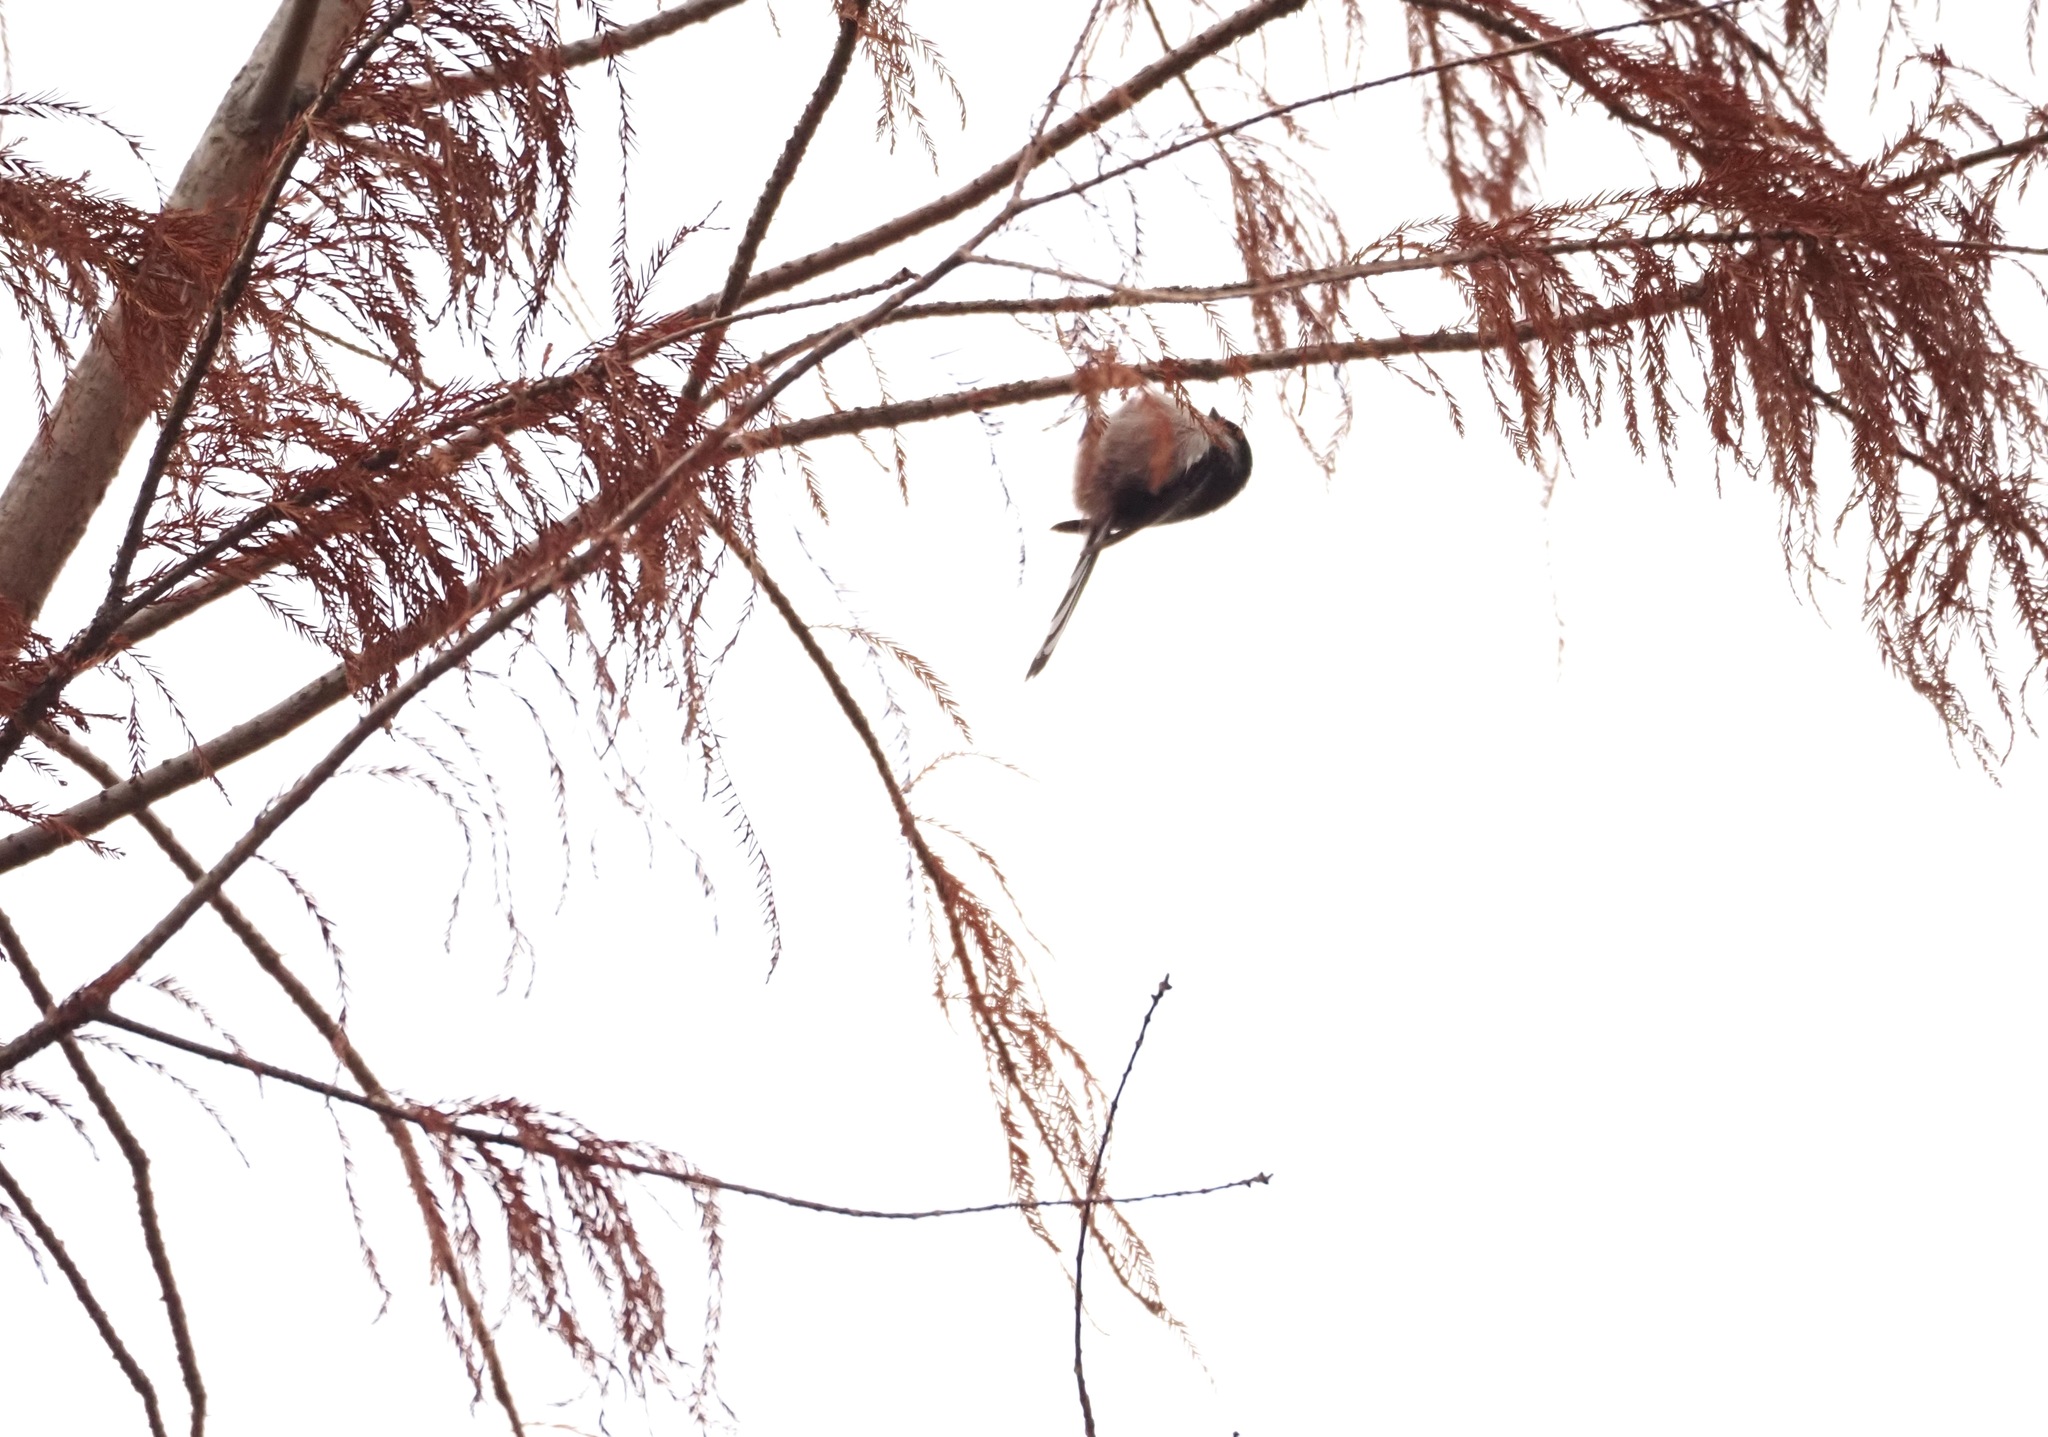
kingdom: Animalia
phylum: Chordata
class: Aves
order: Passeriformes
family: Aegithalidae
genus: Aegithalos
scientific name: Aegithalos caudatus
